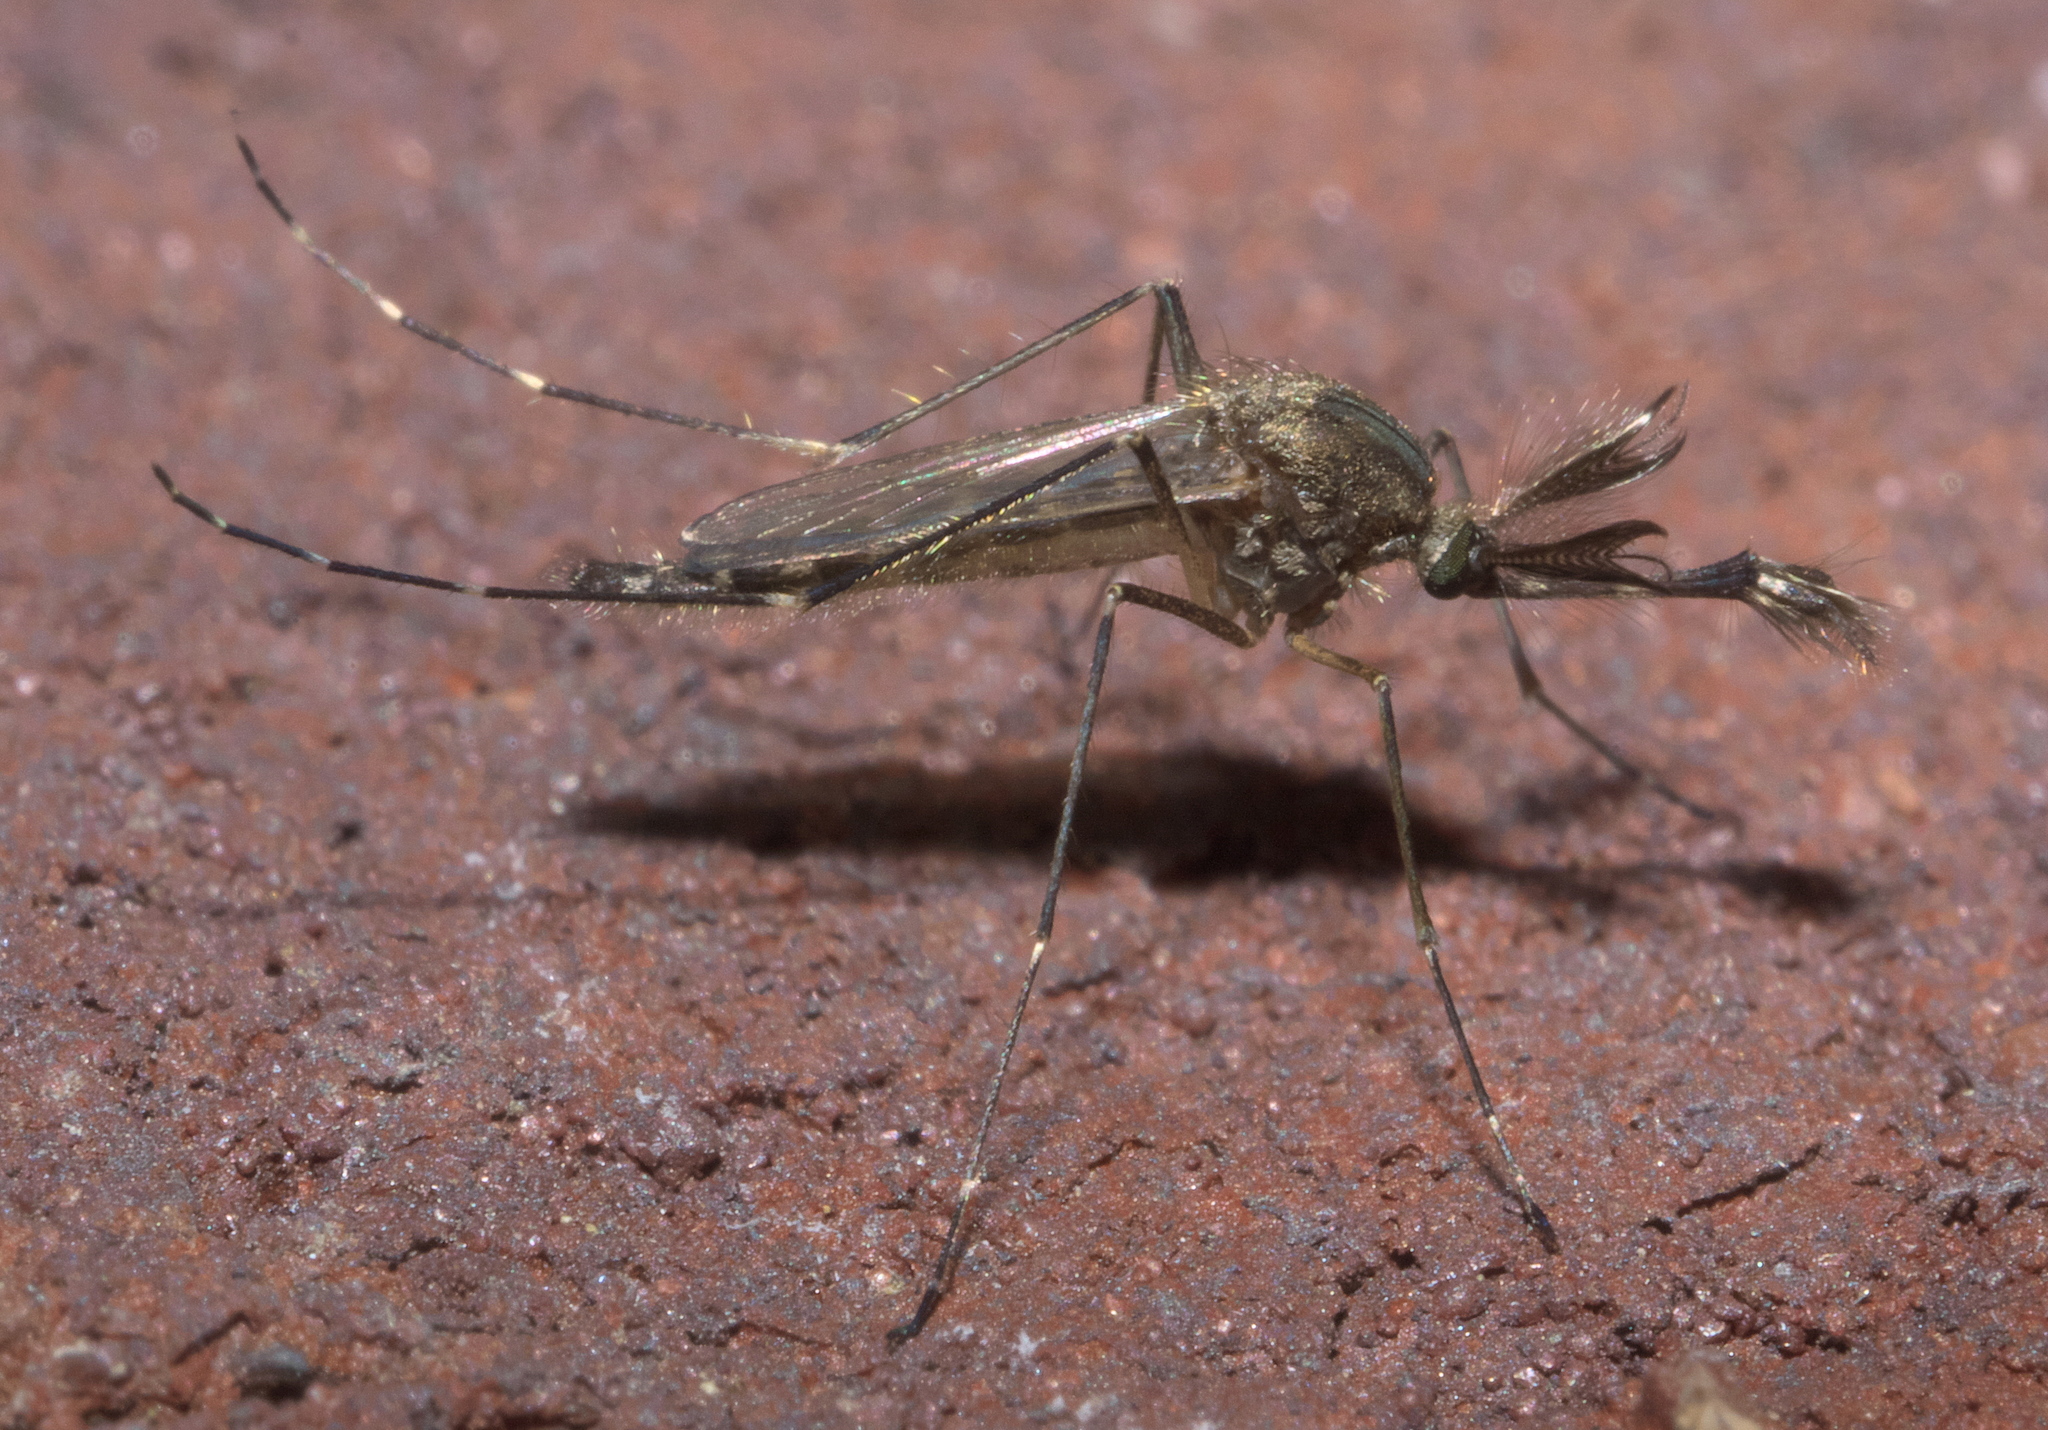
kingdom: Animalia
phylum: Arthropoda
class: Insecta
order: Diptera
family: Culicidae
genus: Aedes
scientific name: Aedes vexans
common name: Inland floodwater mosquito
